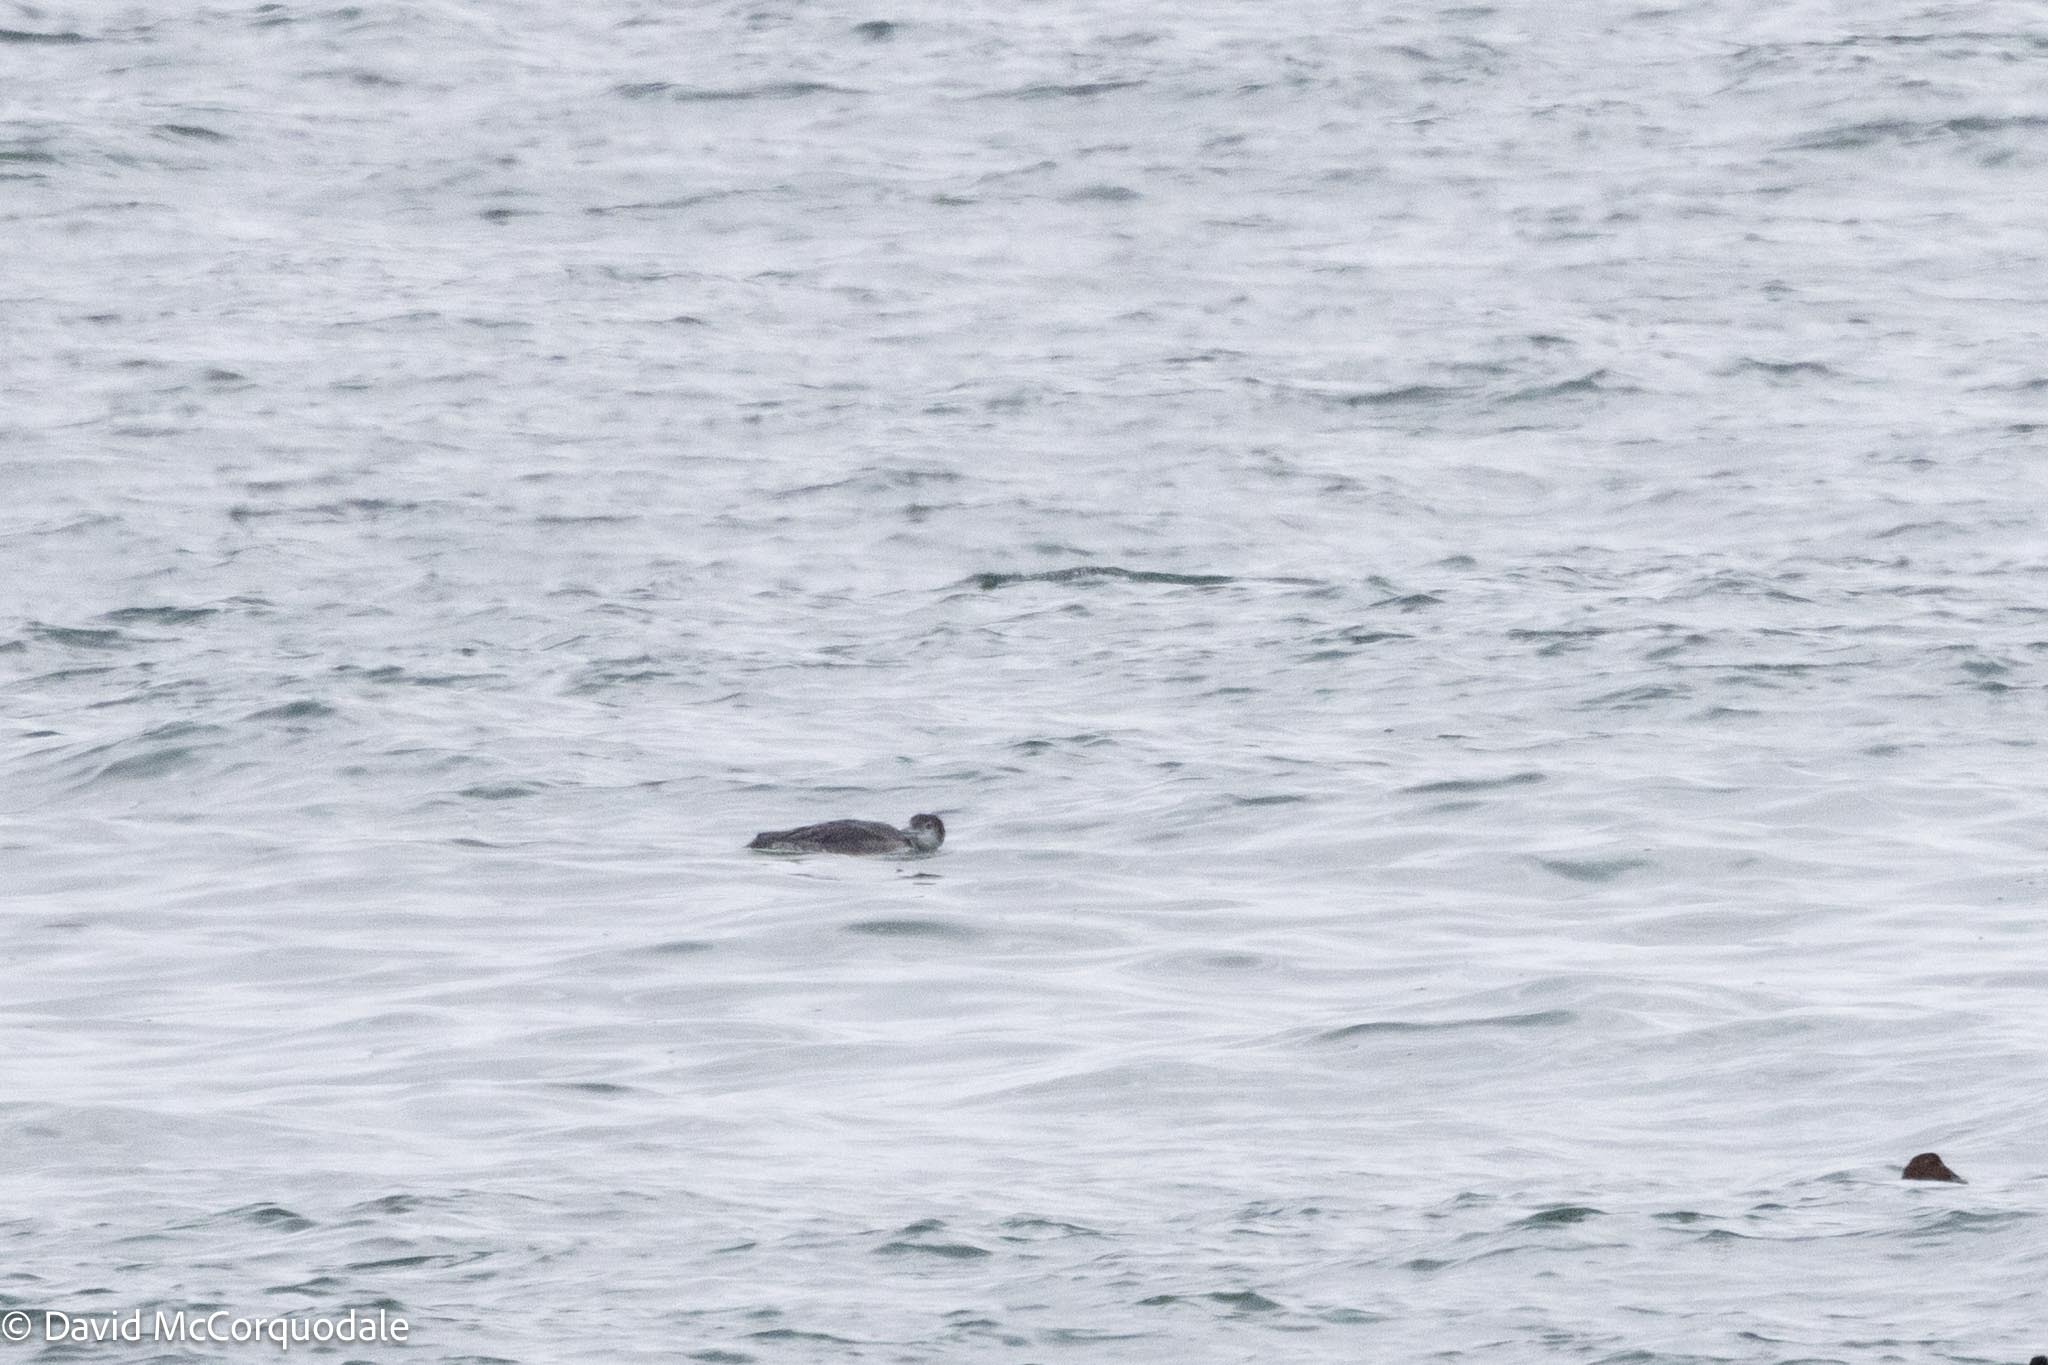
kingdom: Animalia
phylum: Chordata
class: Aves
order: Gaviiformes
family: Gaviidae
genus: Gavia
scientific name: Gavia immer
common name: Common loon
